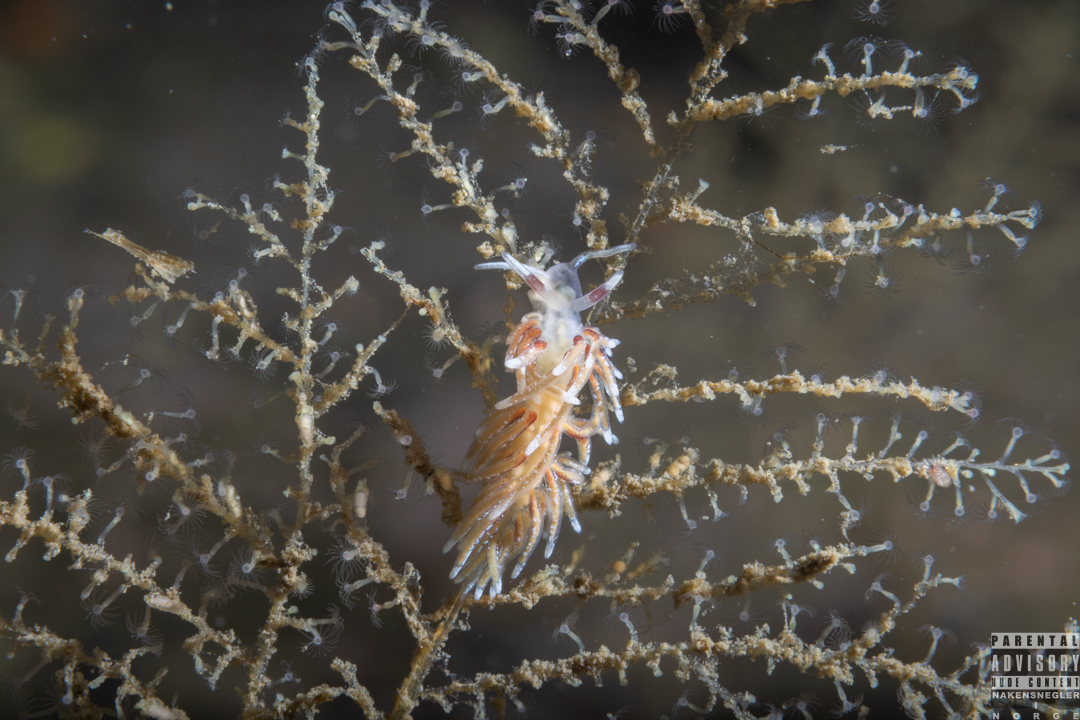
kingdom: Animalia
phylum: Mollusca
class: Gastropoda
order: Nudibranchia
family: Trinchesiidae
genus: Rubramoena
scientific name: Rubramoena rubescens
